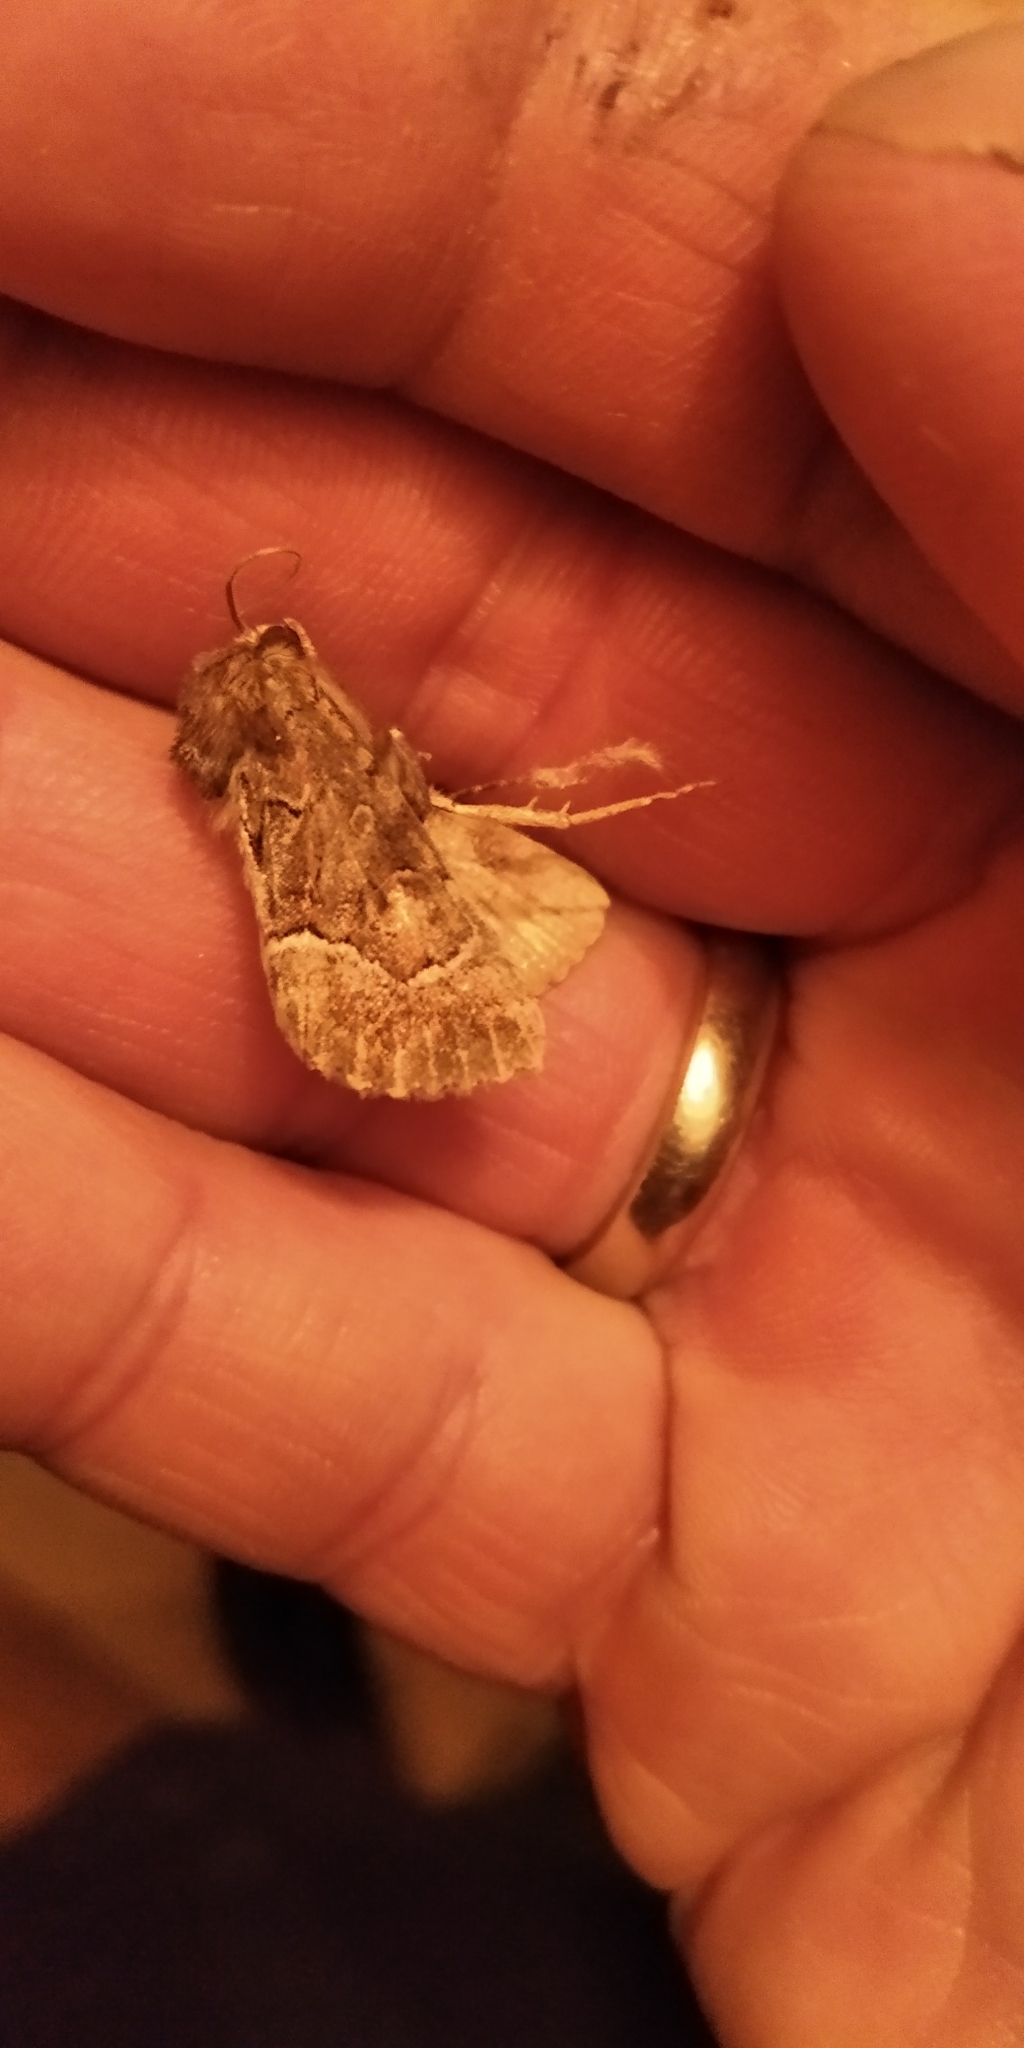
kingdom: Animalia
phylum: Arthropoda
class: Insecta
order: Lepidoptera
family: Noctuidae
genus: Thalpophila
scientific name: Thalpophila matura
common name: Straw underwing
